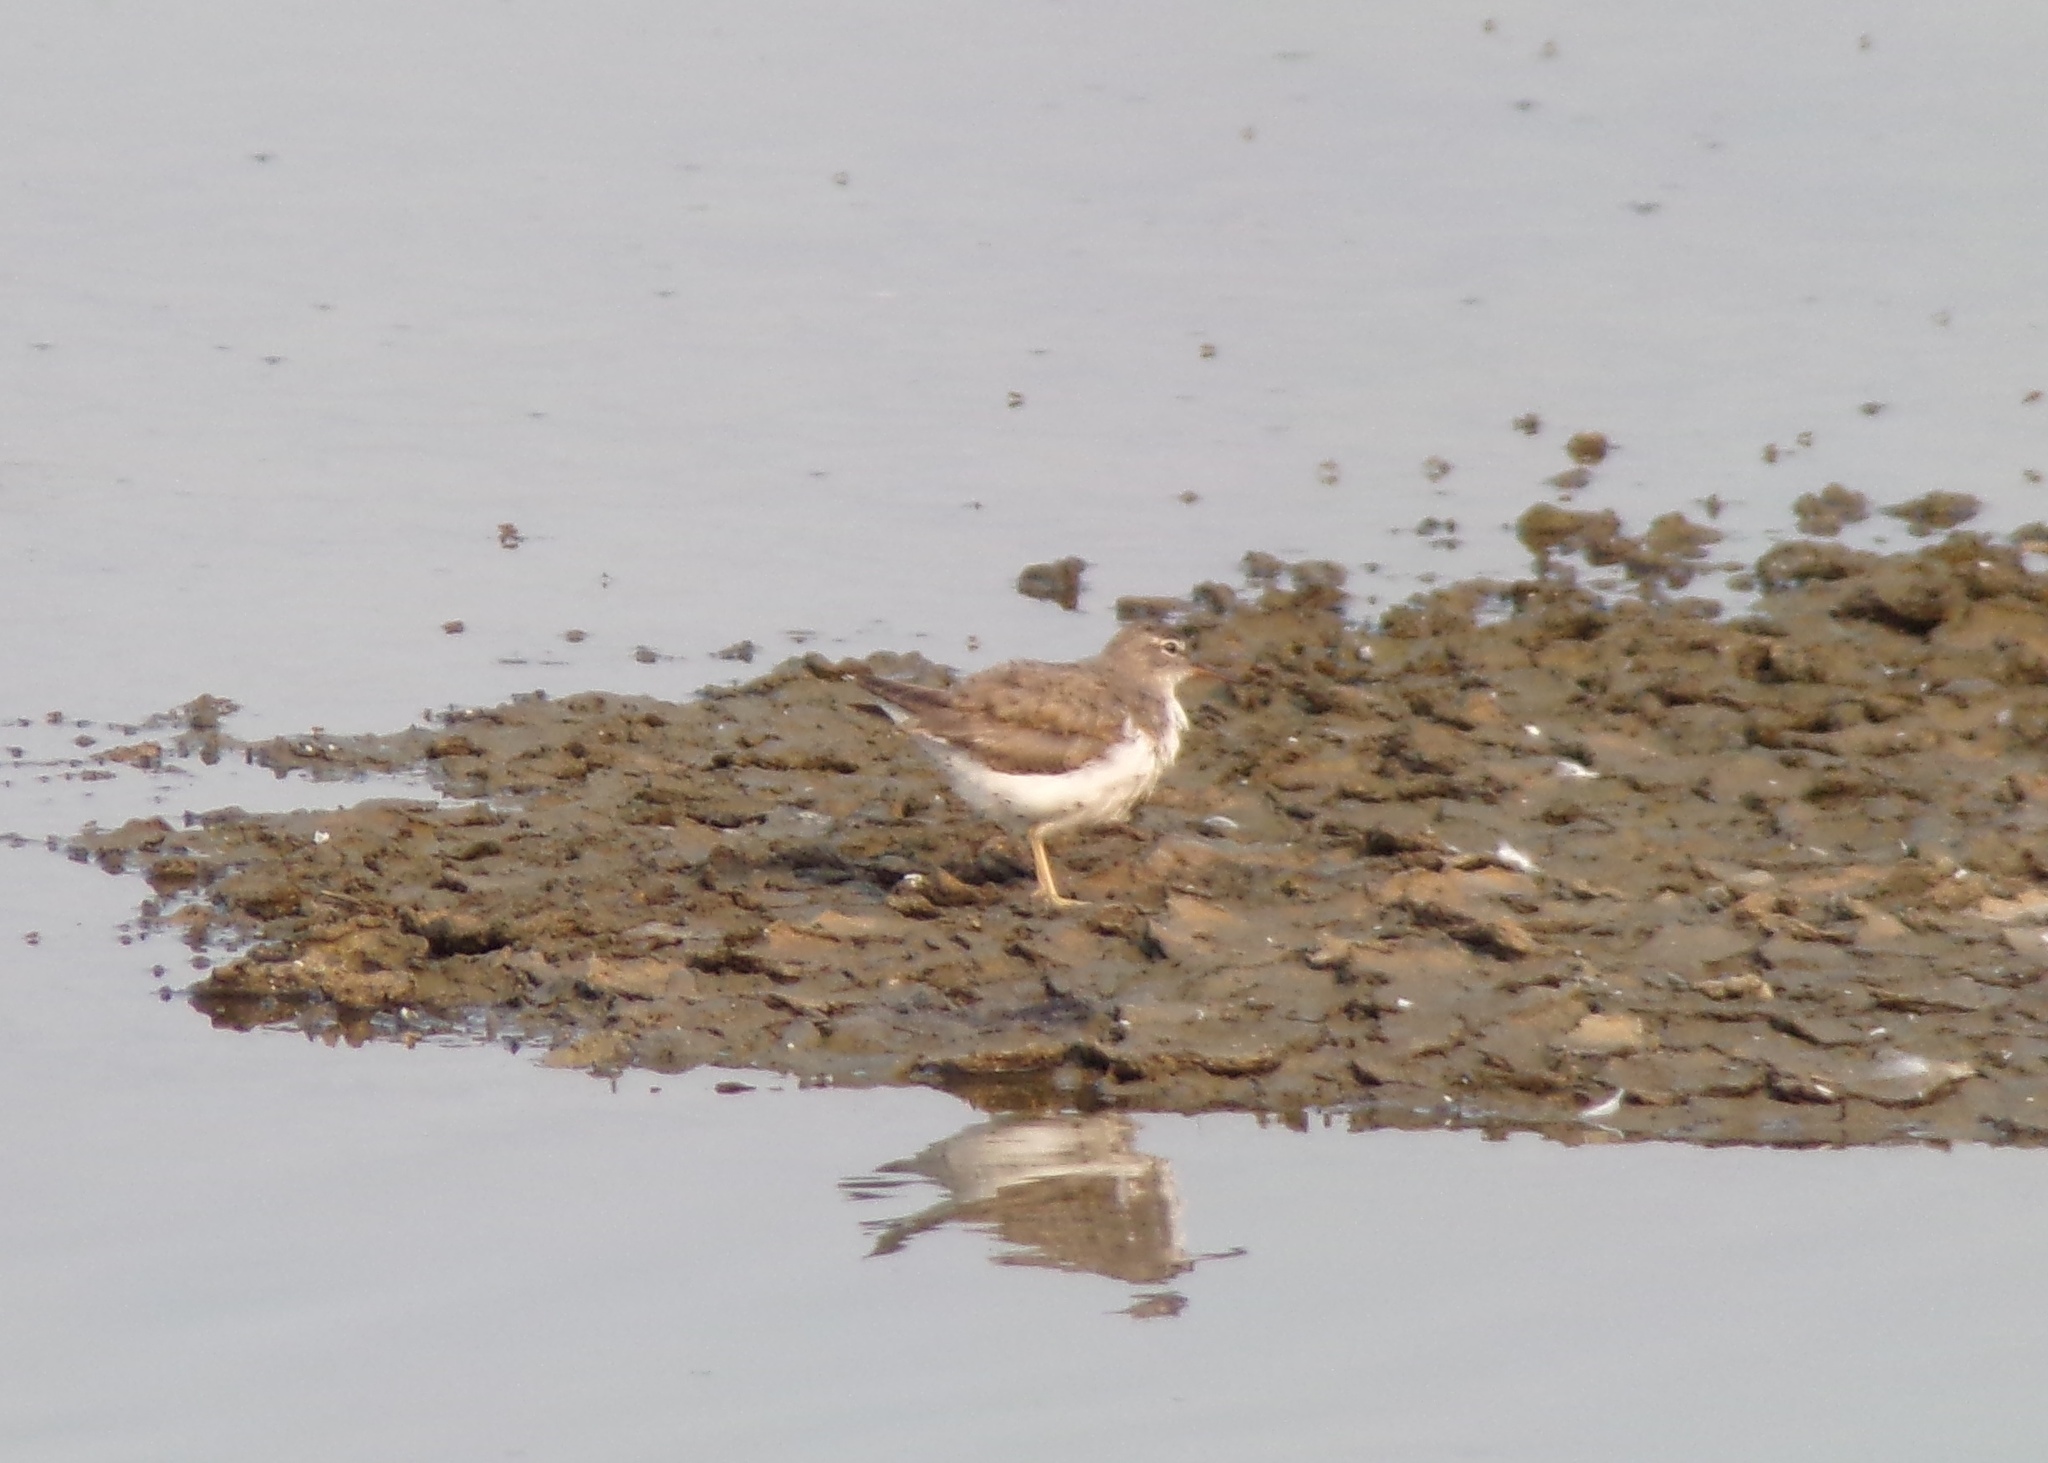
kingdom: Animalia
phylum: Chordata
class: Aves
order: Charadriiformes
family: Scolopacidae
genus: Actitis
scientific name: Actitis macularius
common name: Spotted sandpiper
